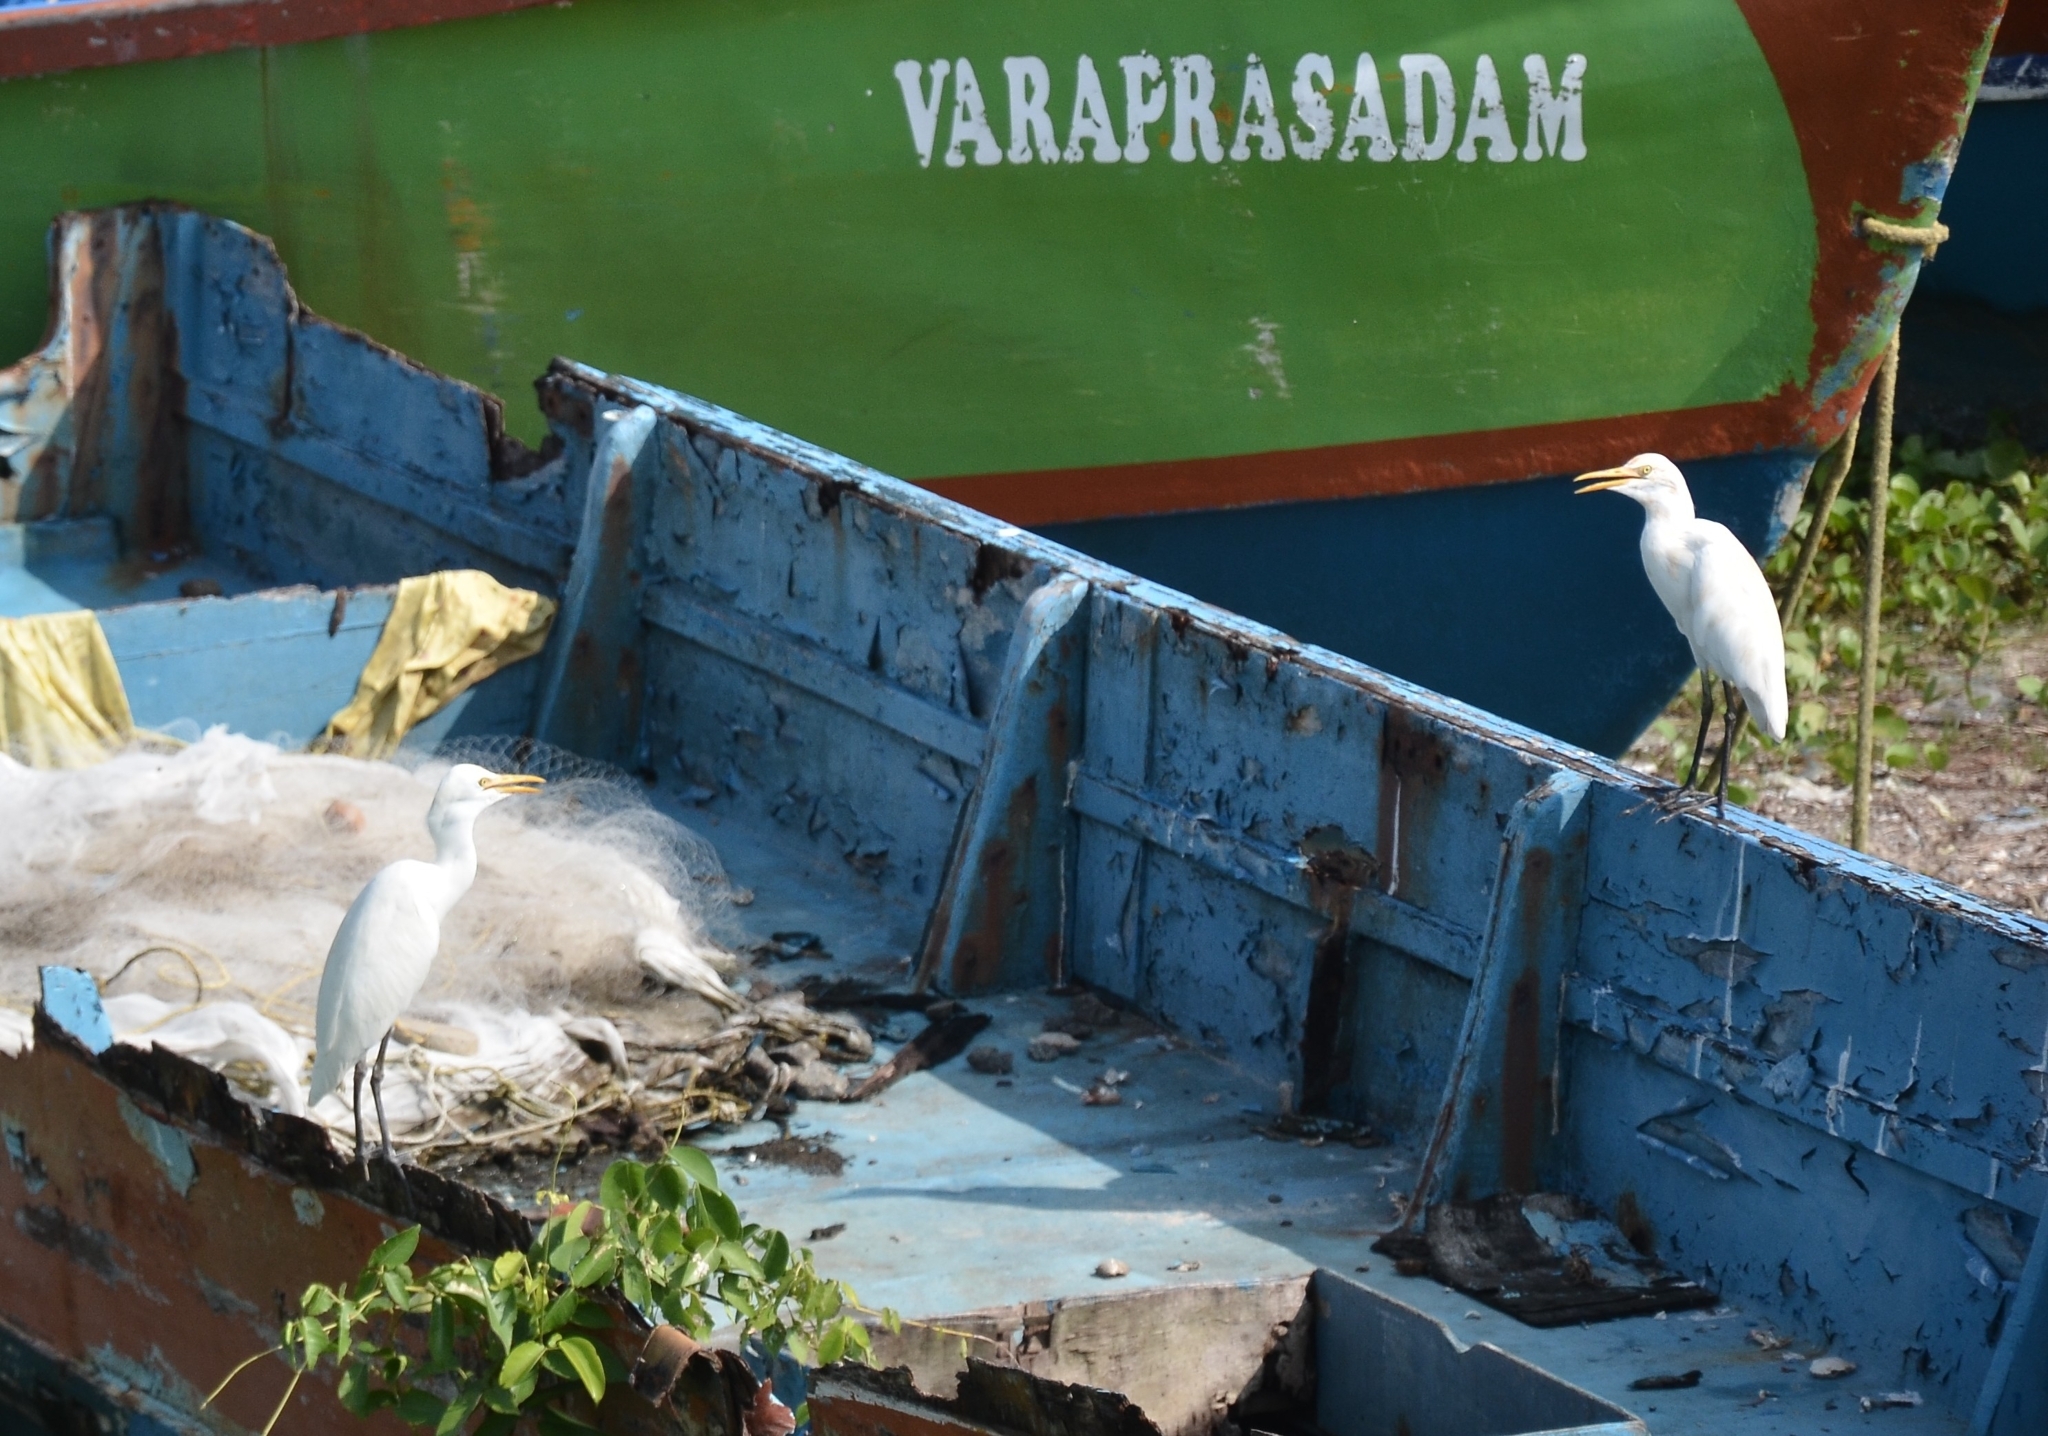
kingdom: Animalia
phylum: Chordata
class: Aves
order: Pelecaniformes
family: Ardeidae
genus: Bubulcus
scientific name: Bubulcus coromandus
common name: Eastern cattle egret
